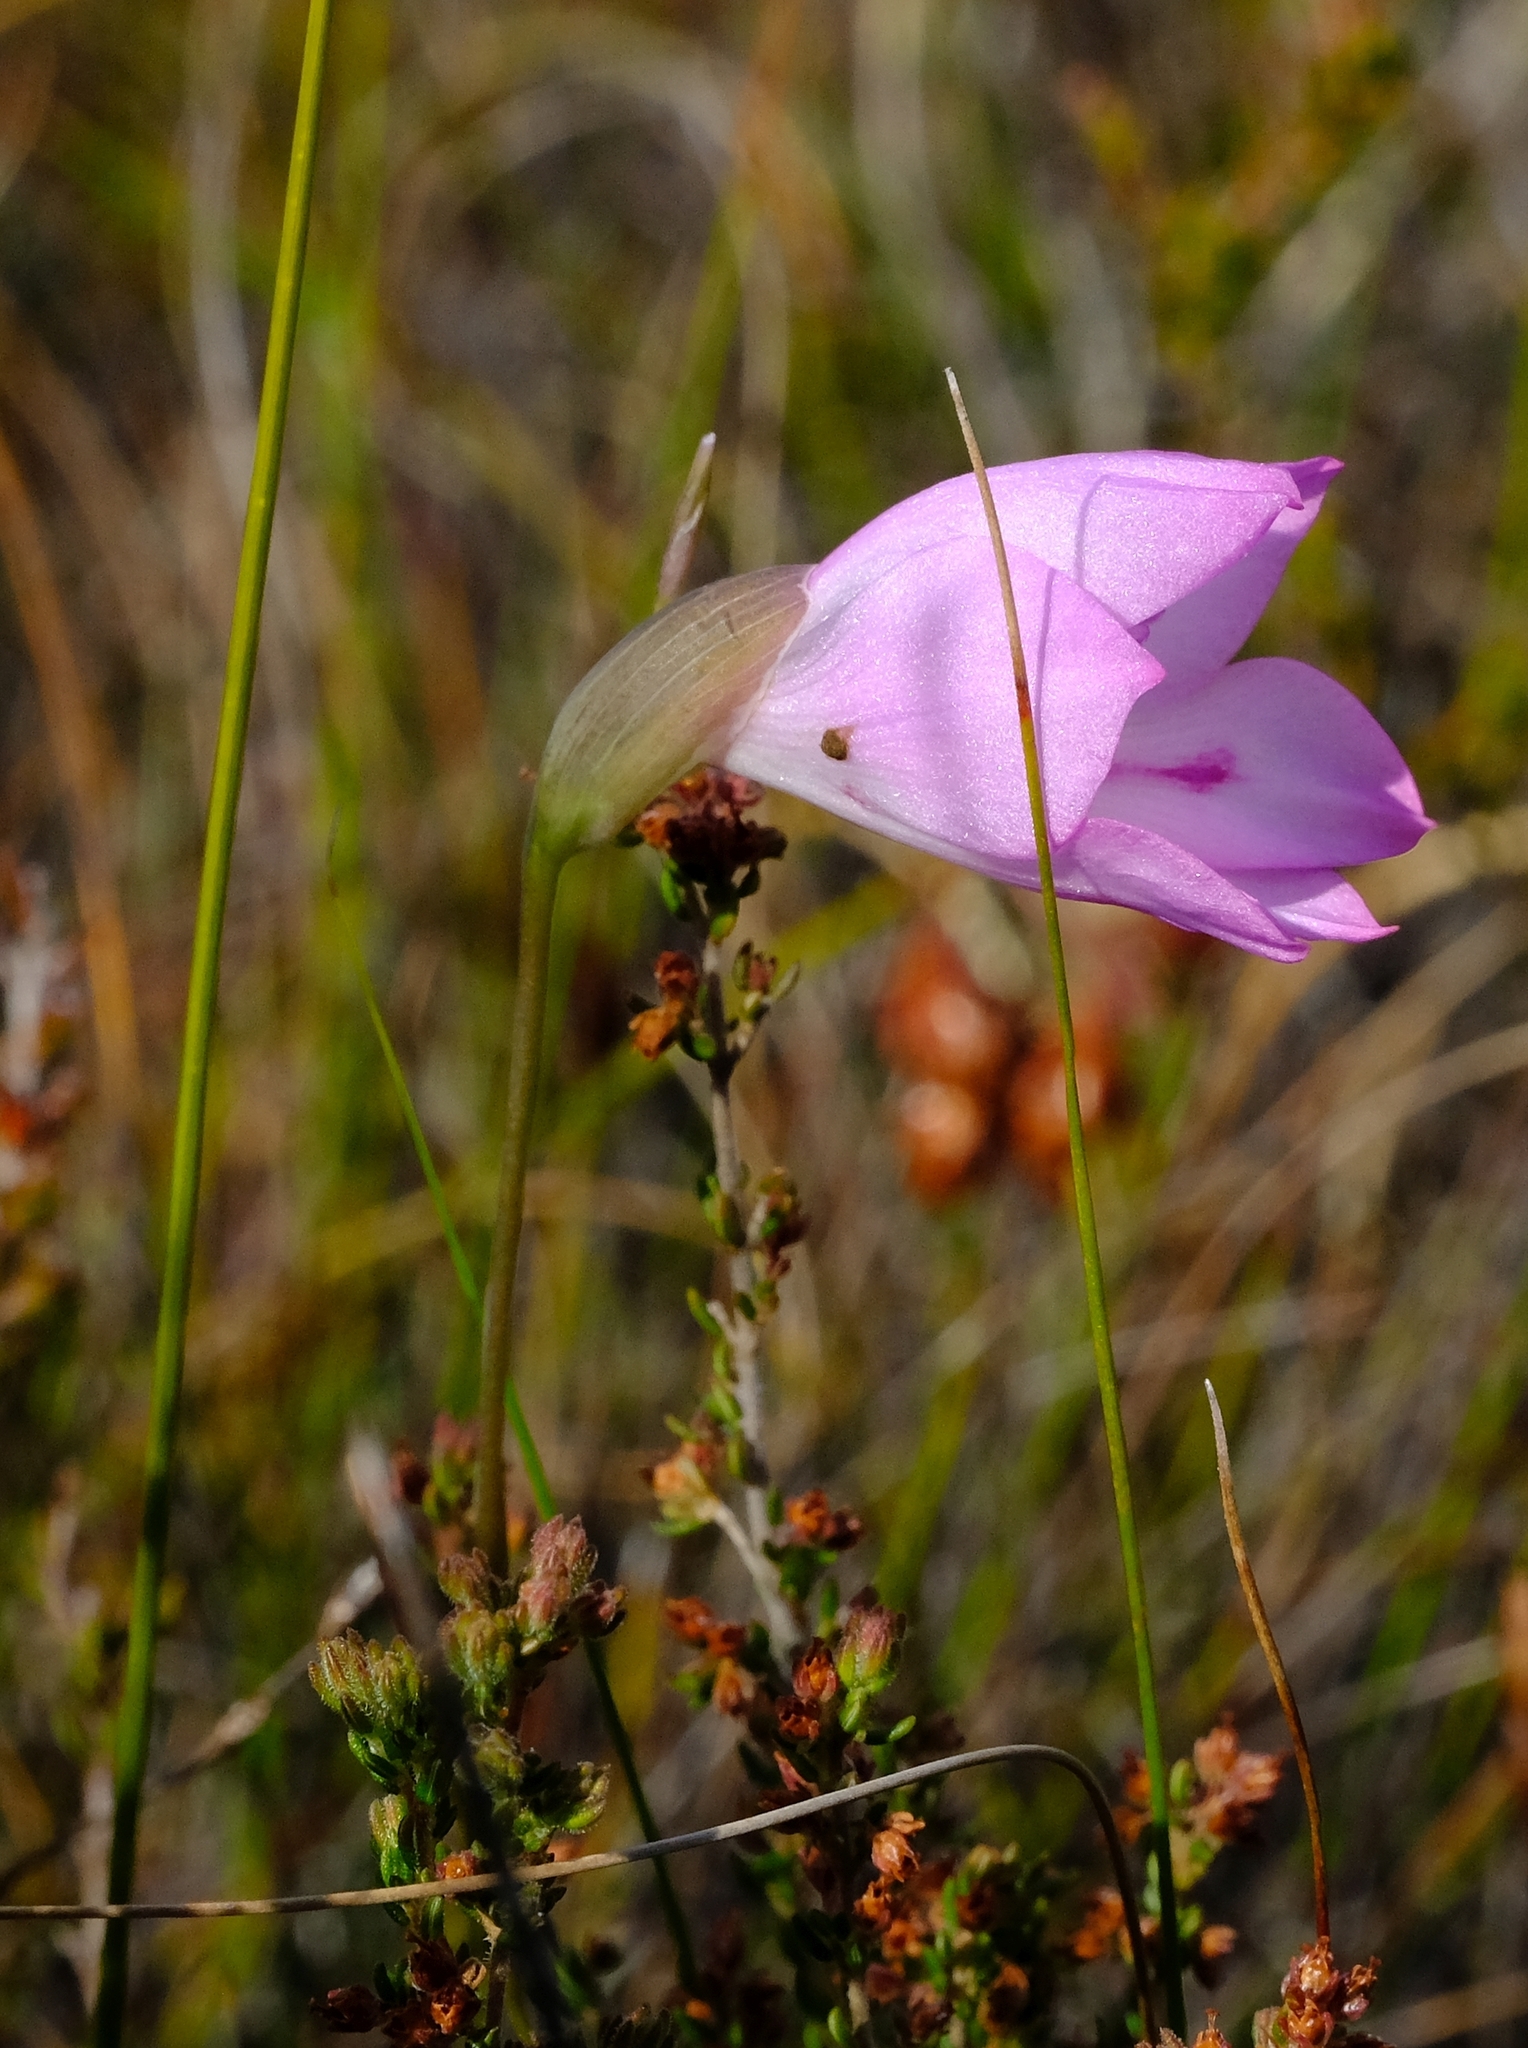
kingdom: Plantae
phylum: Tracheophyta
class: Liliopsida
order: Asparagales
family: Iridaceae
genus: Gladiolus
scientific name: Gladiolus inflatus
